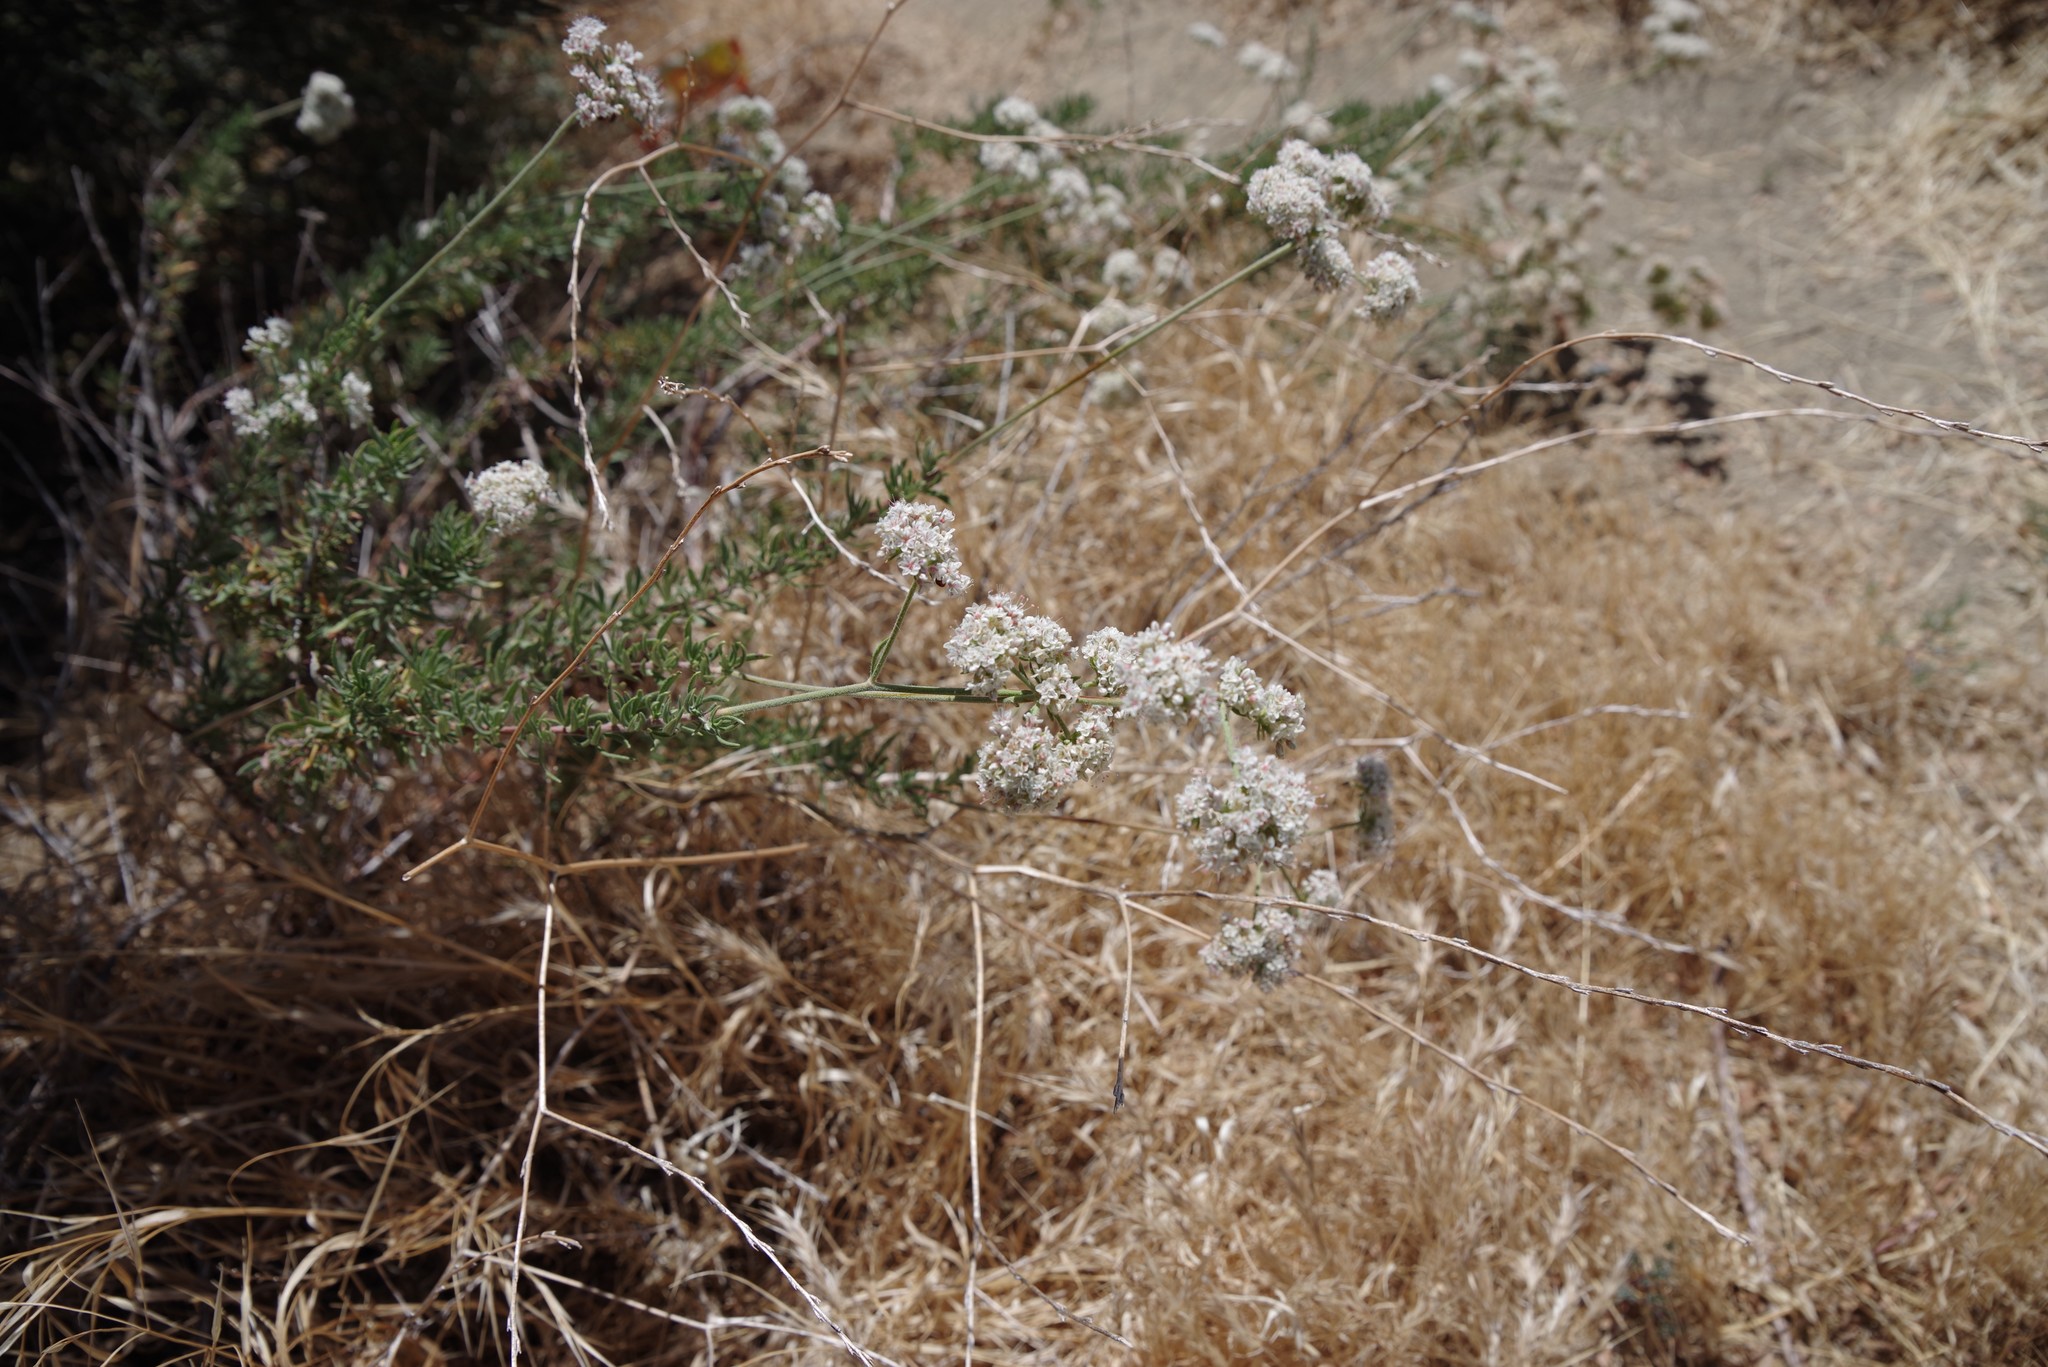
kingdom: Plantae
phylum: Tracheophyta
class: Magnoliopsida
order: Caryophyllales
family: Polygonaceae
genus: Eriogonum
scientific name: Eriogonum fasciculatum
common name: California wild buckwheat
